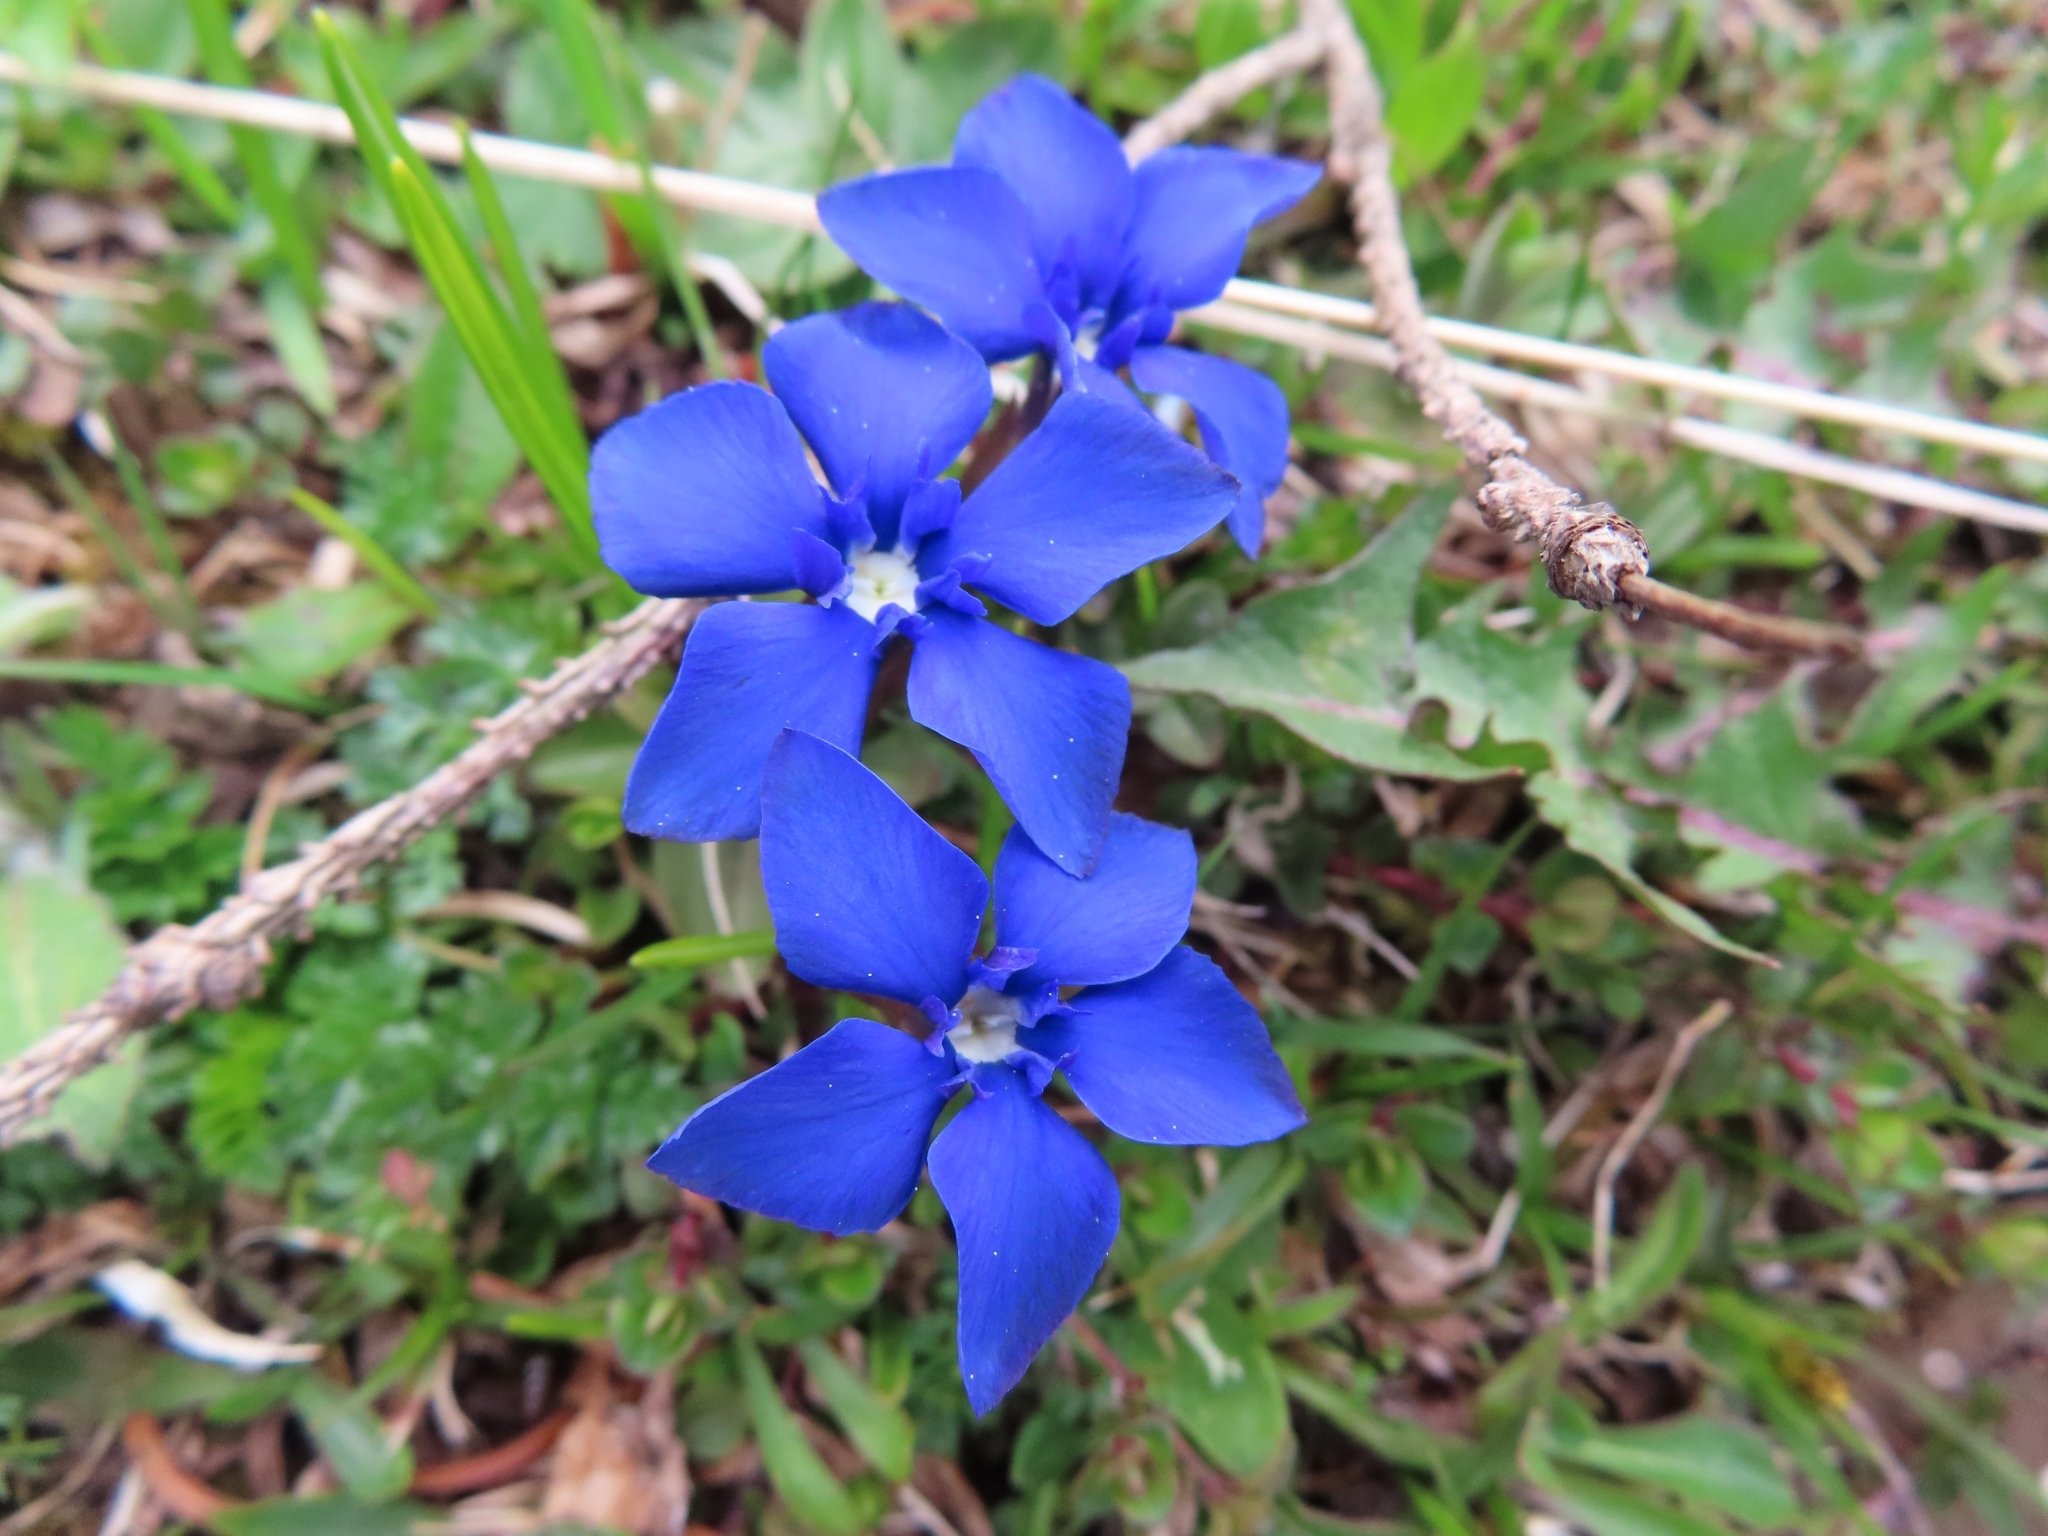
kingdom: Plantae
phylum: Tracheophyta
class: Magnoliopsida
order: Gentianales
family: Gentianaceae
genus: Gentiana
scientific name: Gentiana verna
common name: Spring gentian
